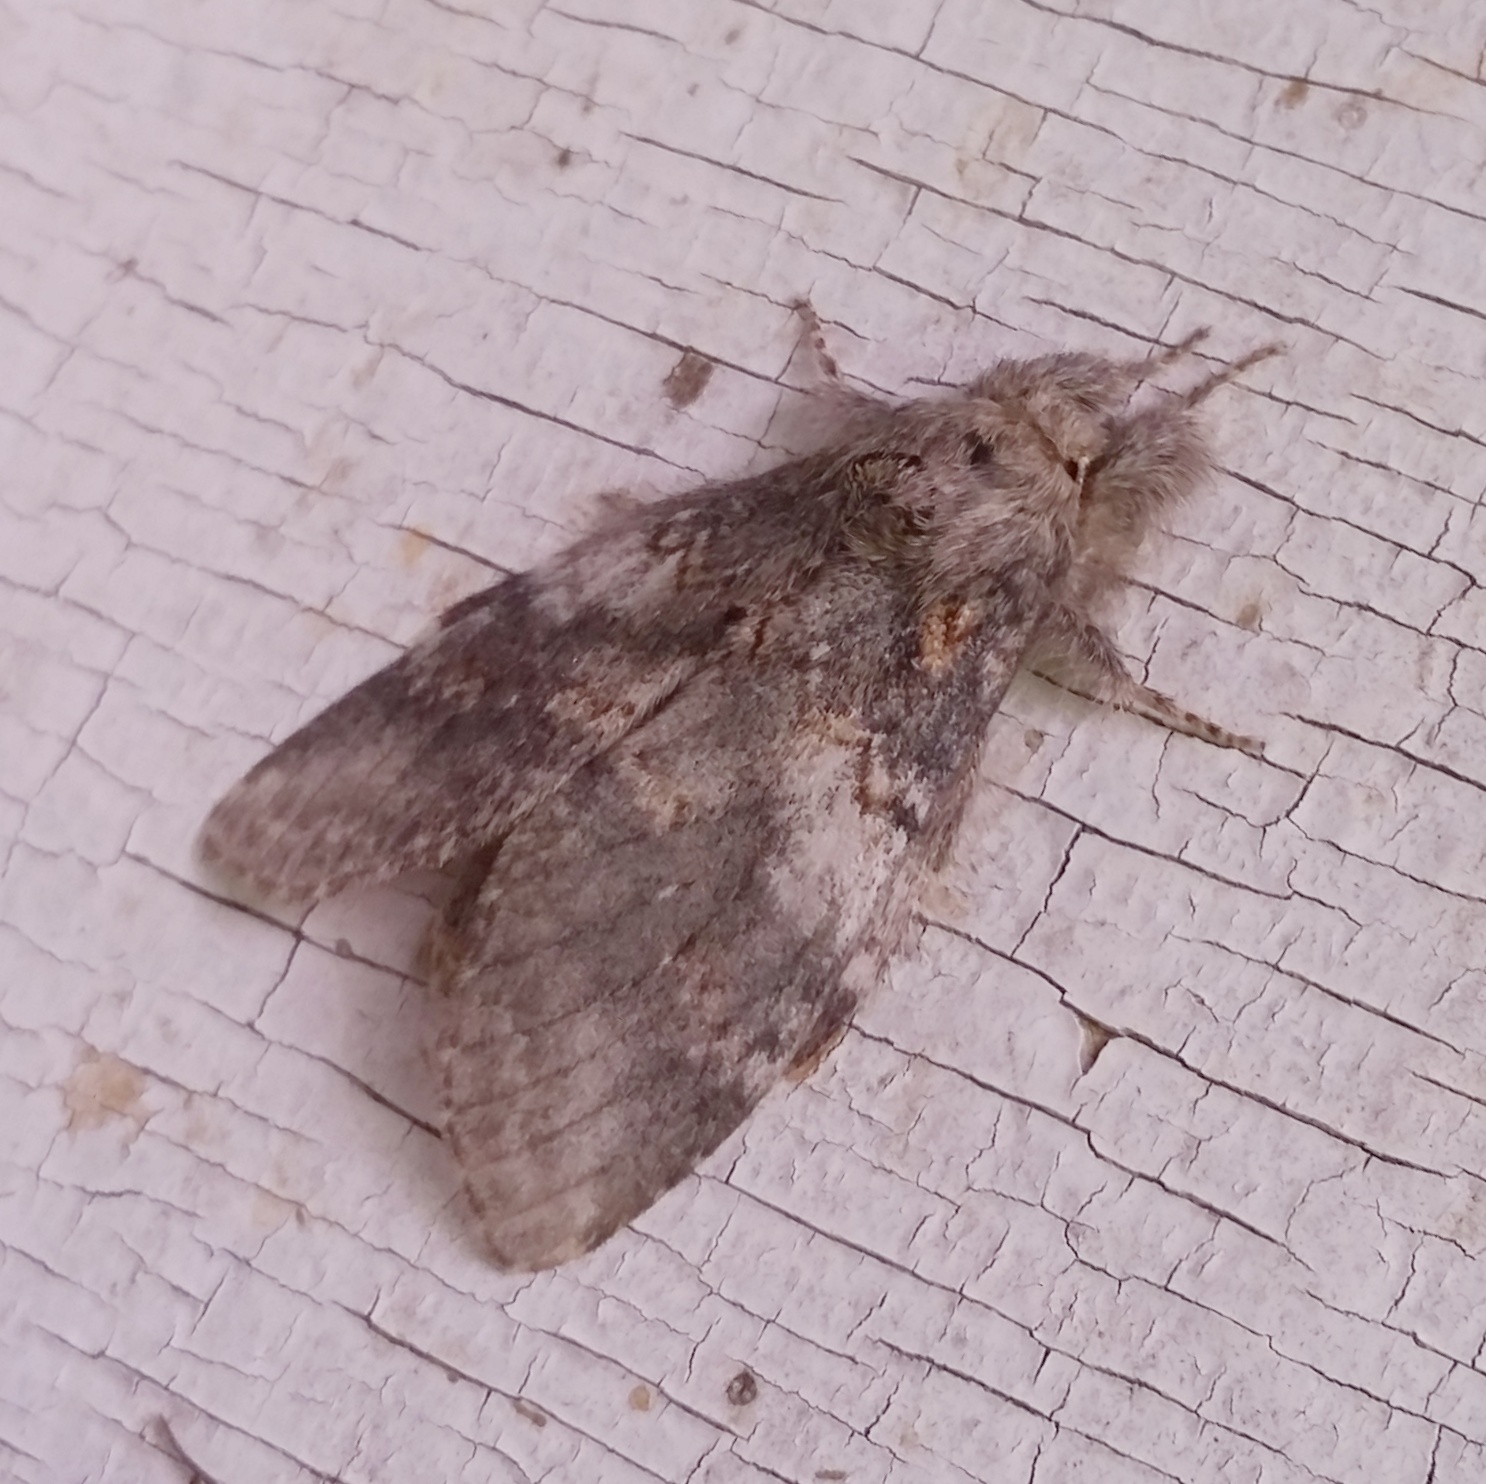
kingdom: Animalia
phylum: Arthropoda
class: Insecta
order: Lepidoptera
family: Notodontidae
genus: Peridea
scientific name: Peridea angulosa
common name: Angulose prominent
